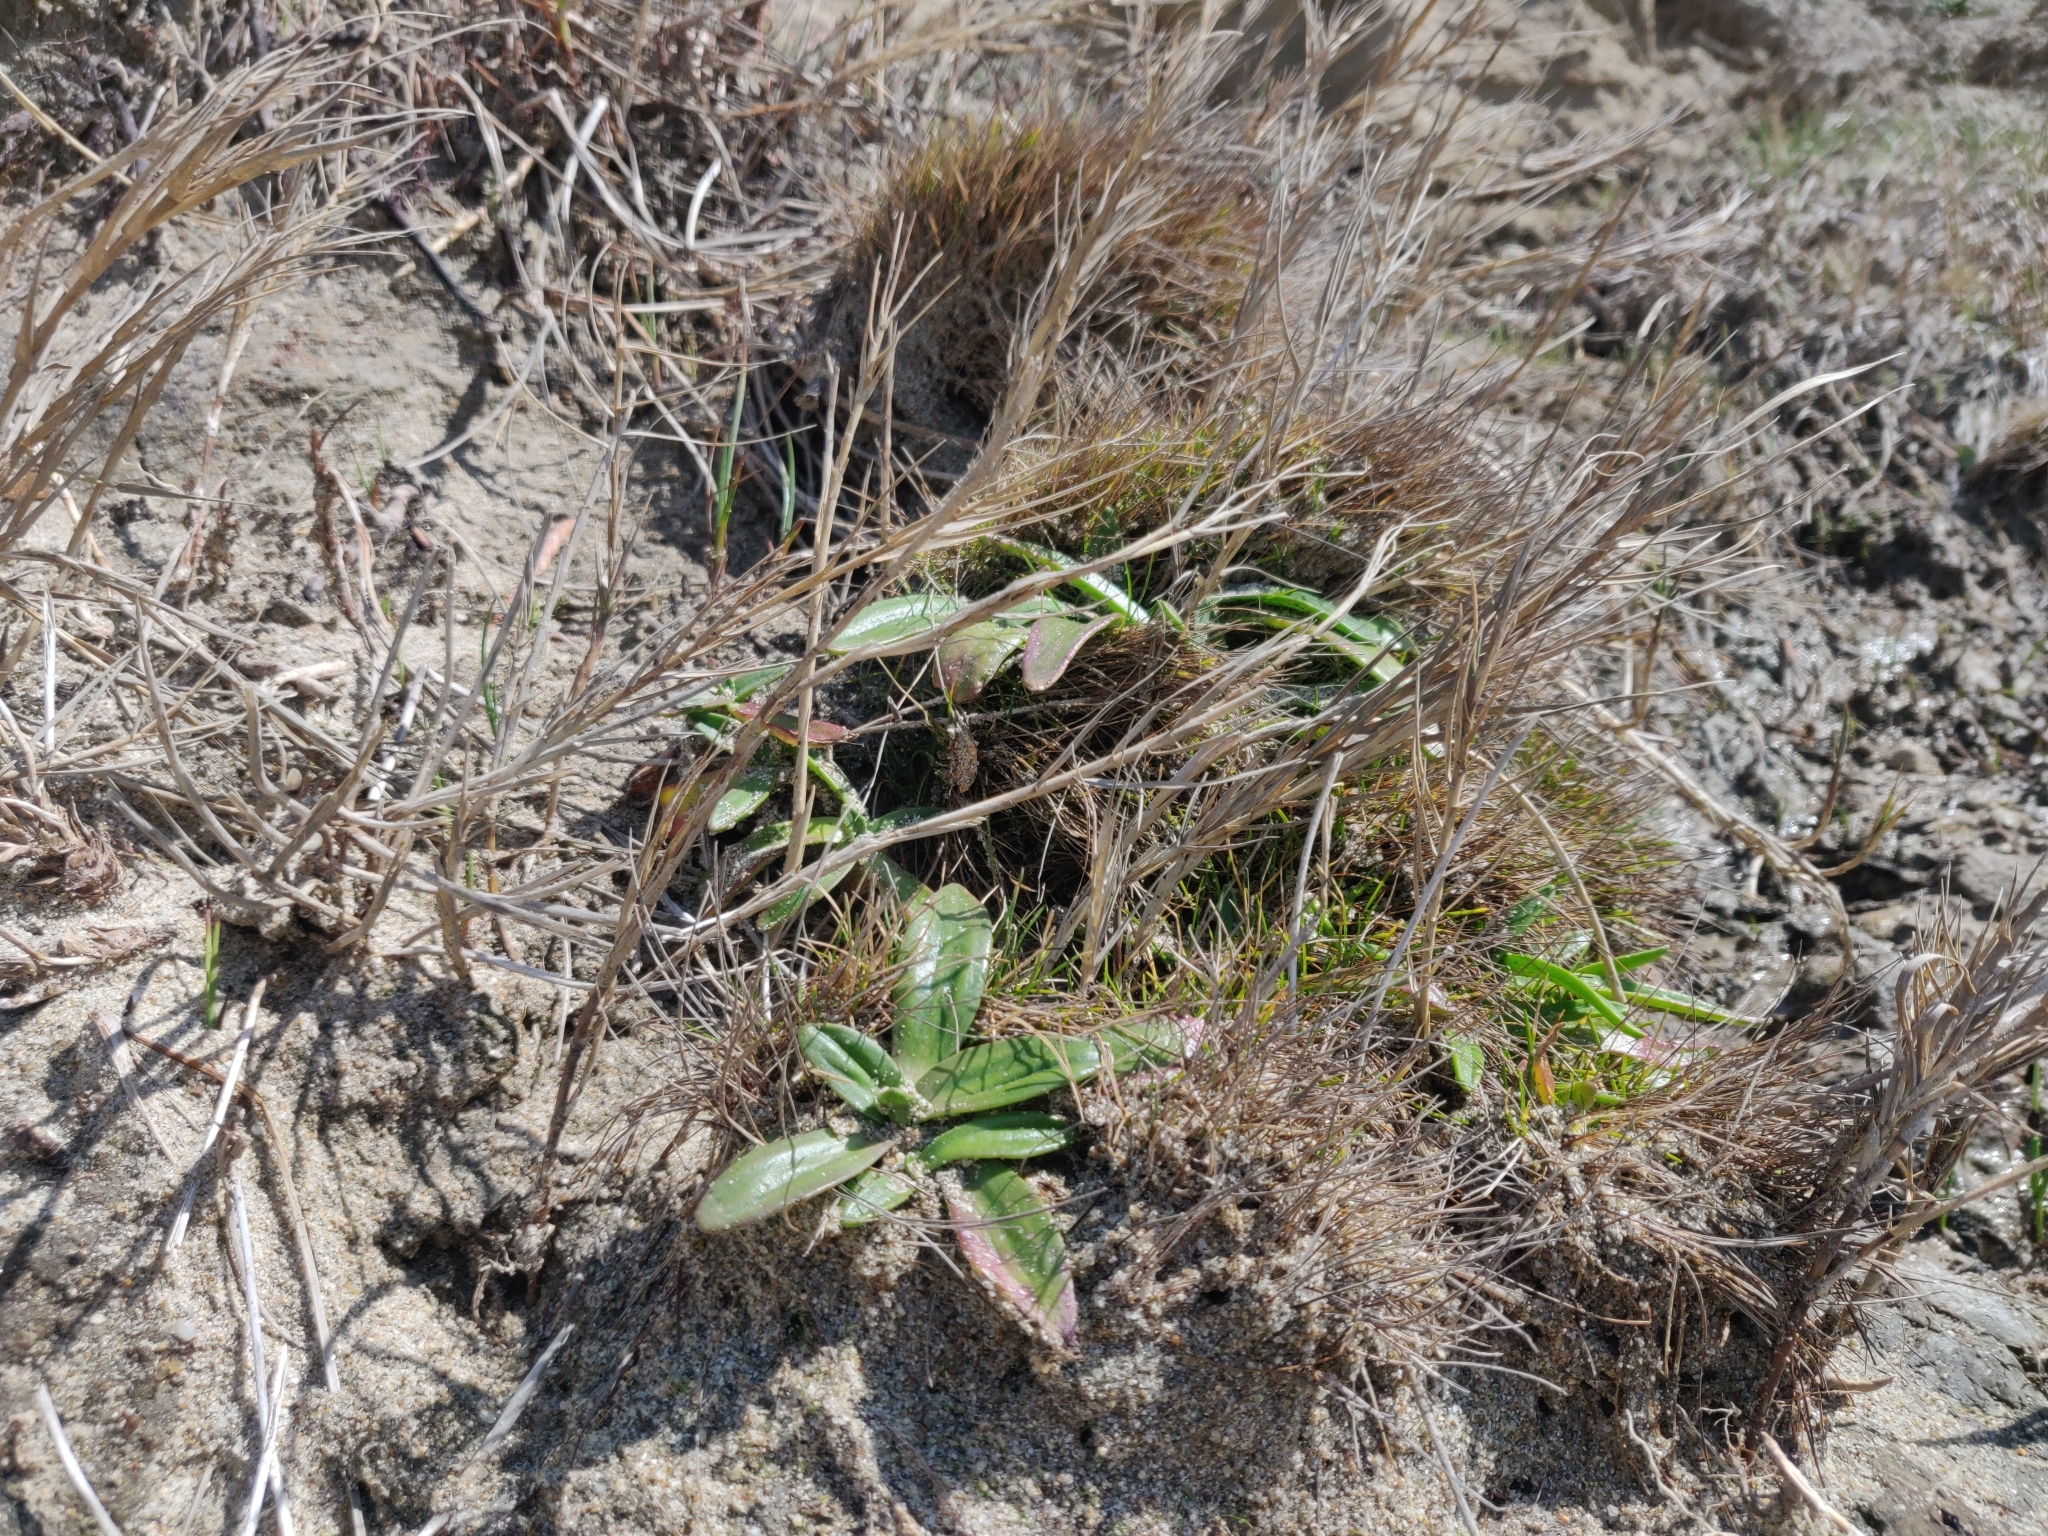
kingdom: Plantae
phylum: Tracheophyta
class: Magnoliopsida
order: Lamiales
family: Plantaginaceae
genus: Plantago
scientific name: Plantago maritima
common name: Sea plantain
